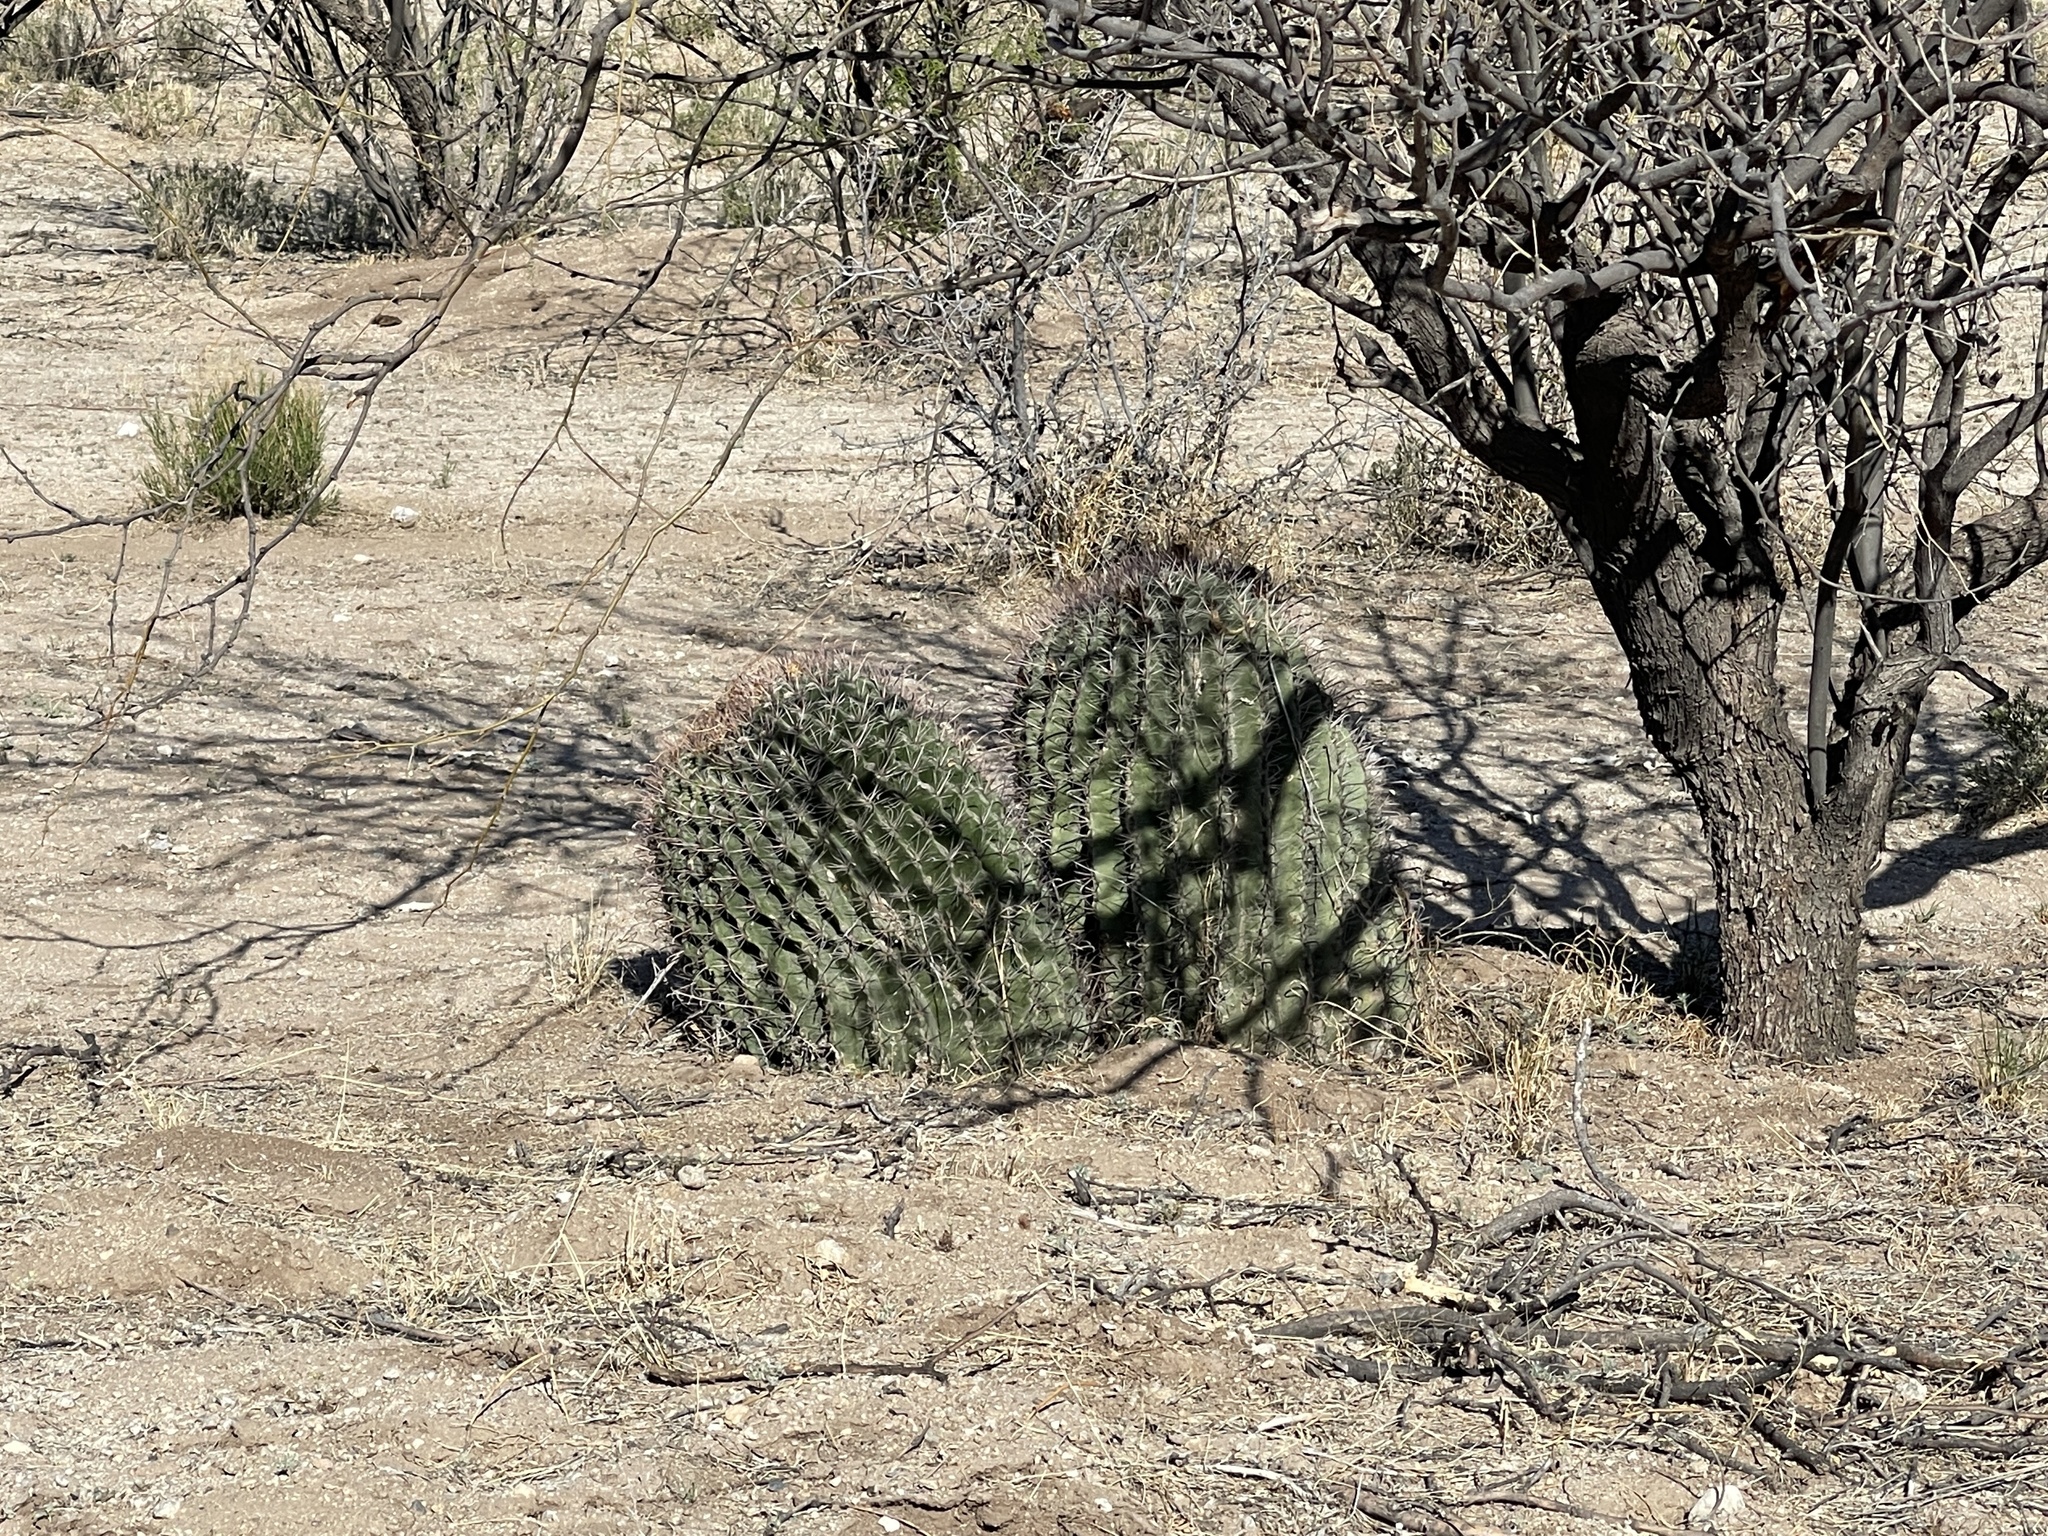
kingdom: Plantae
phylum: Tracheophyta
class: Magnoliopsida
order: Caryophyllales
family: Cactaceae
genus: Ferocactus
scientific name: Ferocactus wislizeni
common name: Candy barrel cactus
